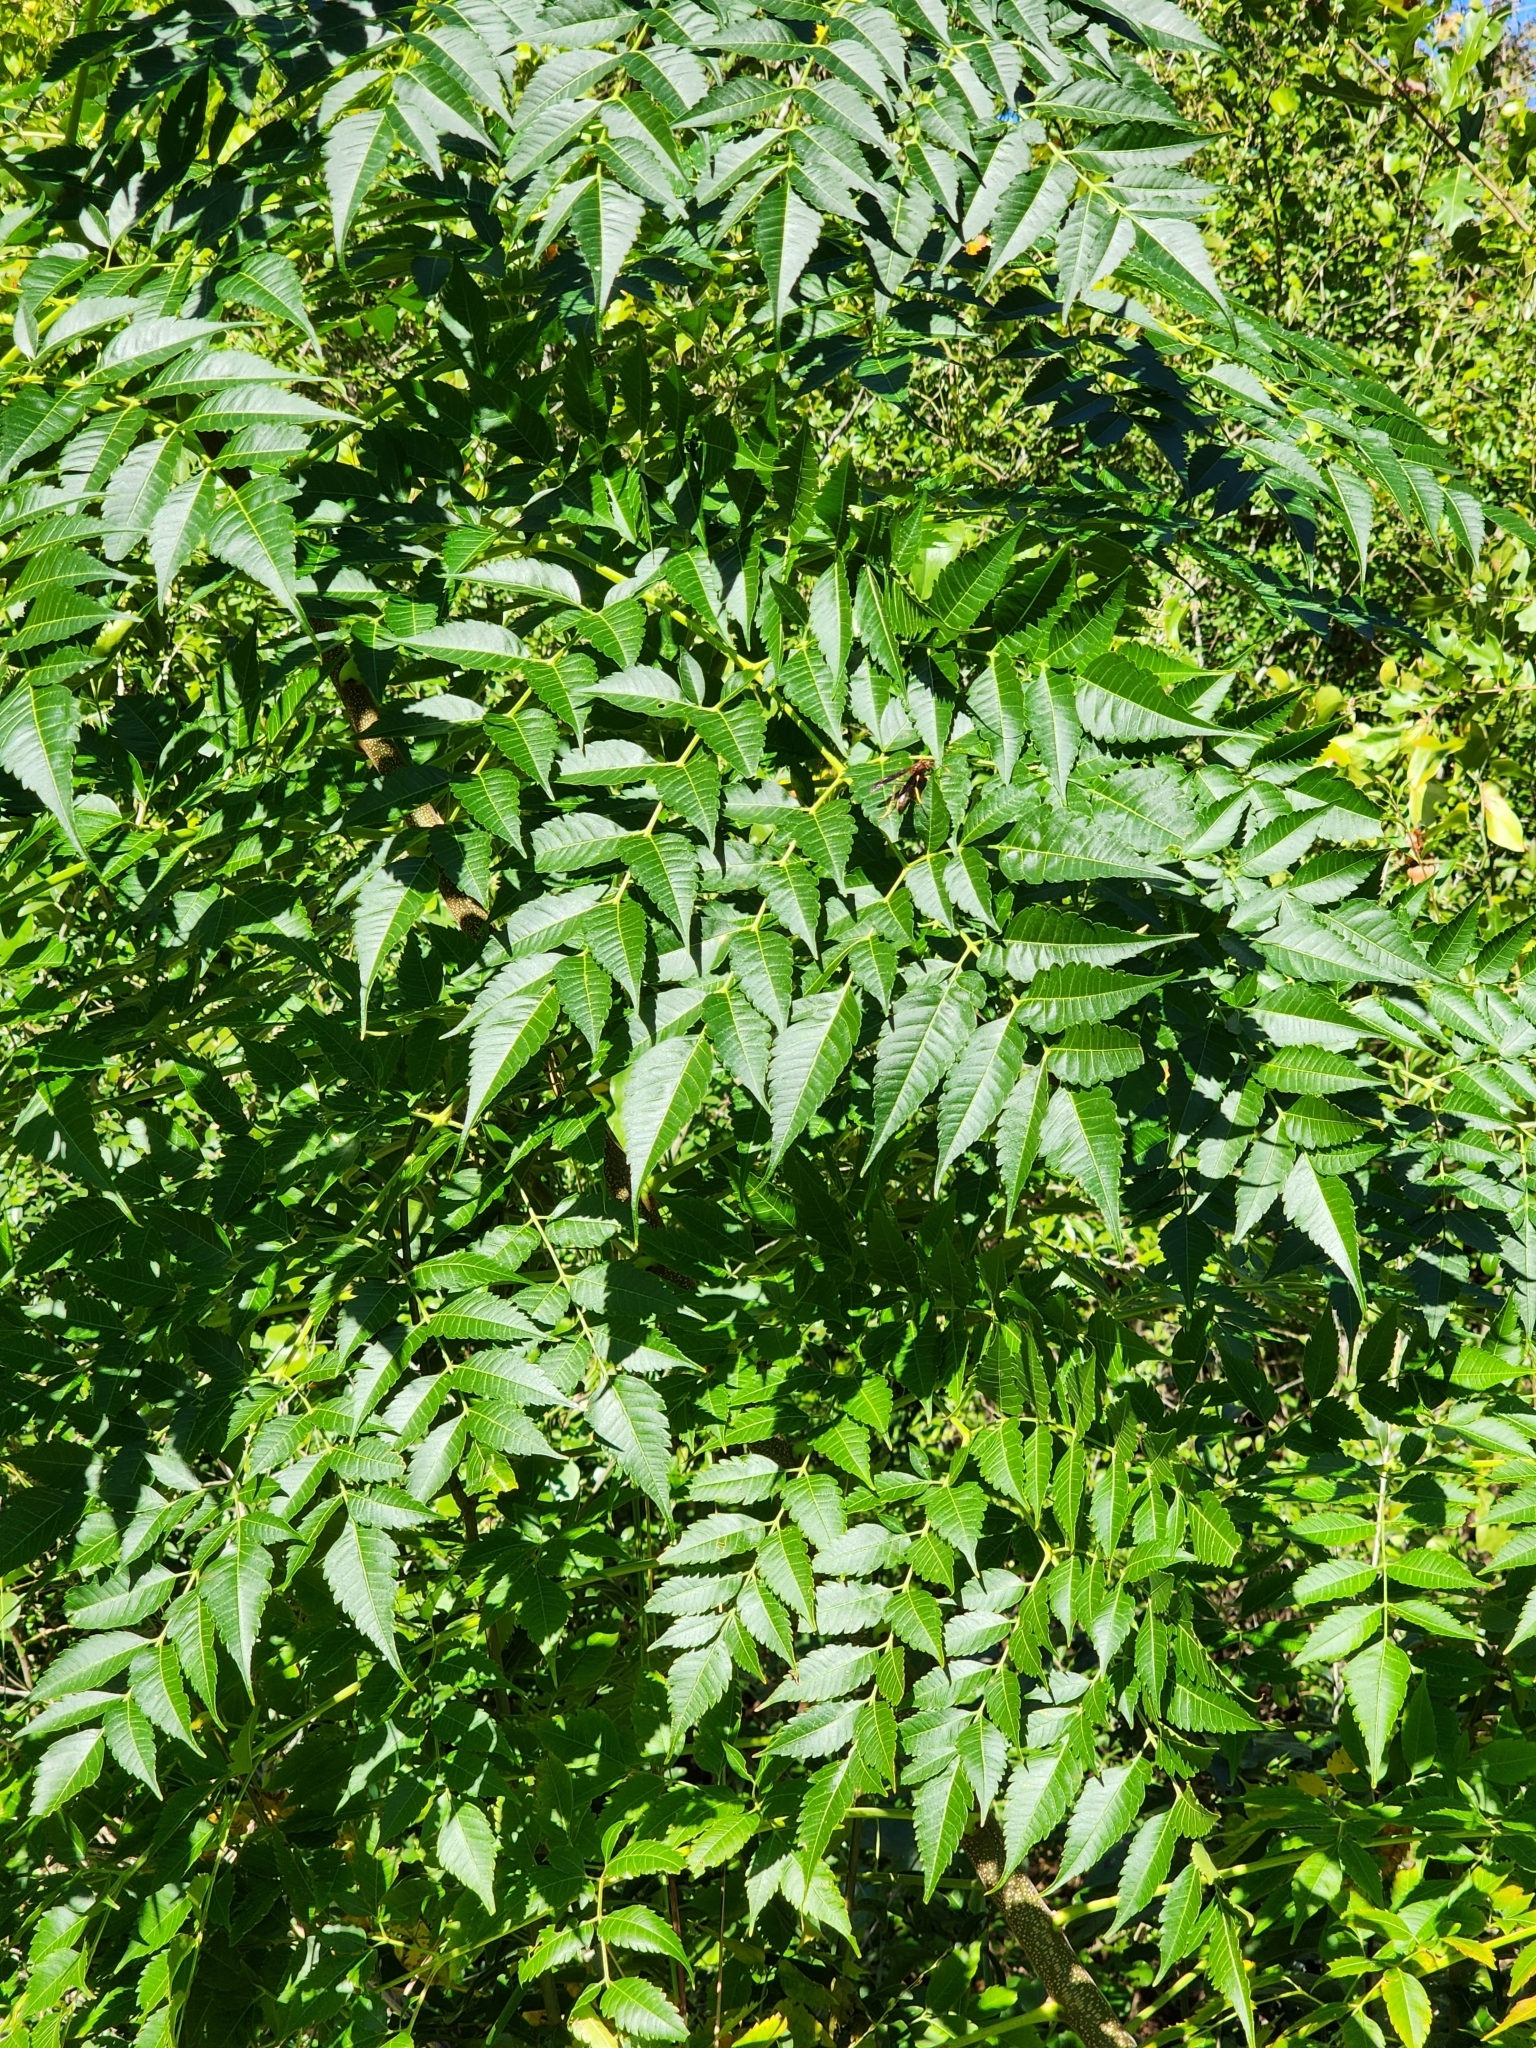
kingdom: Plantae
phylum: Tracheophyta
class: Magnoliopsida
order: Sapindales
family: Meliaceae
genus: Melia
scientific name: Melia azedarach
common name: Chinaberrytree
